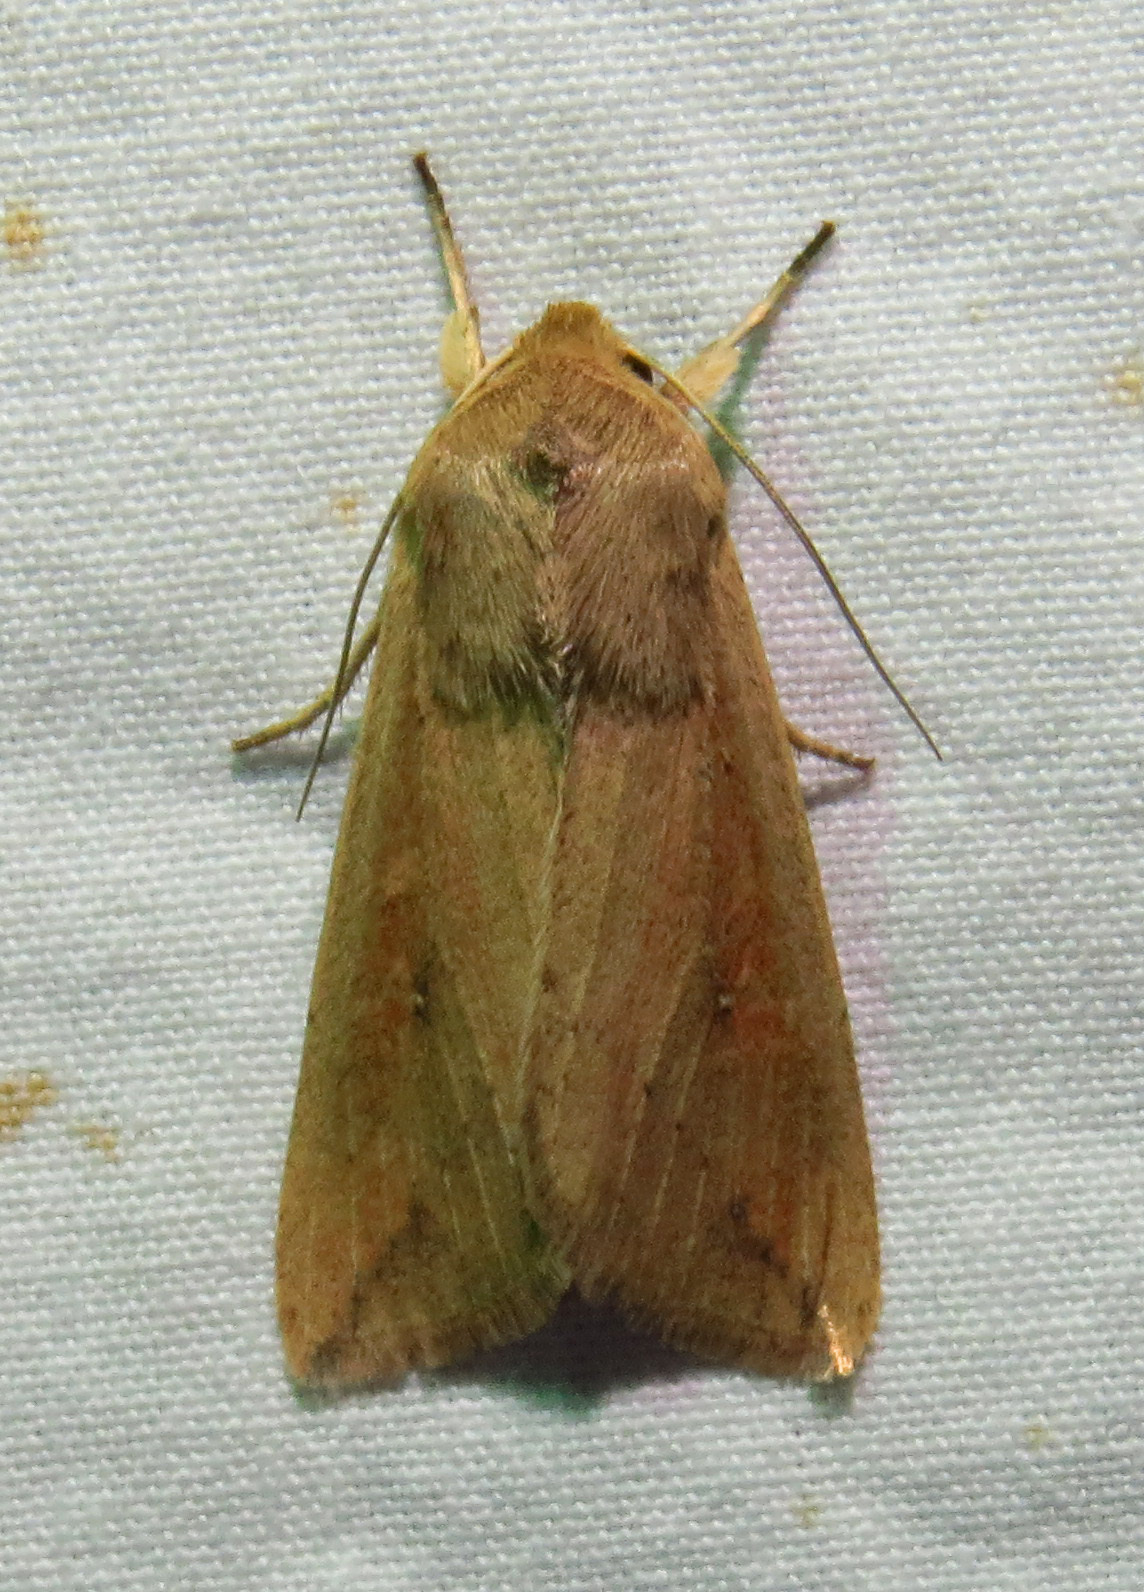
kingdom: Animalia
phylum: Arthropoda
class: Insecta
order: Lepidoptera
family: Noctuidae
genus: Mythimna
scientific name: Mythimna unipuncta
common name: White-speck
